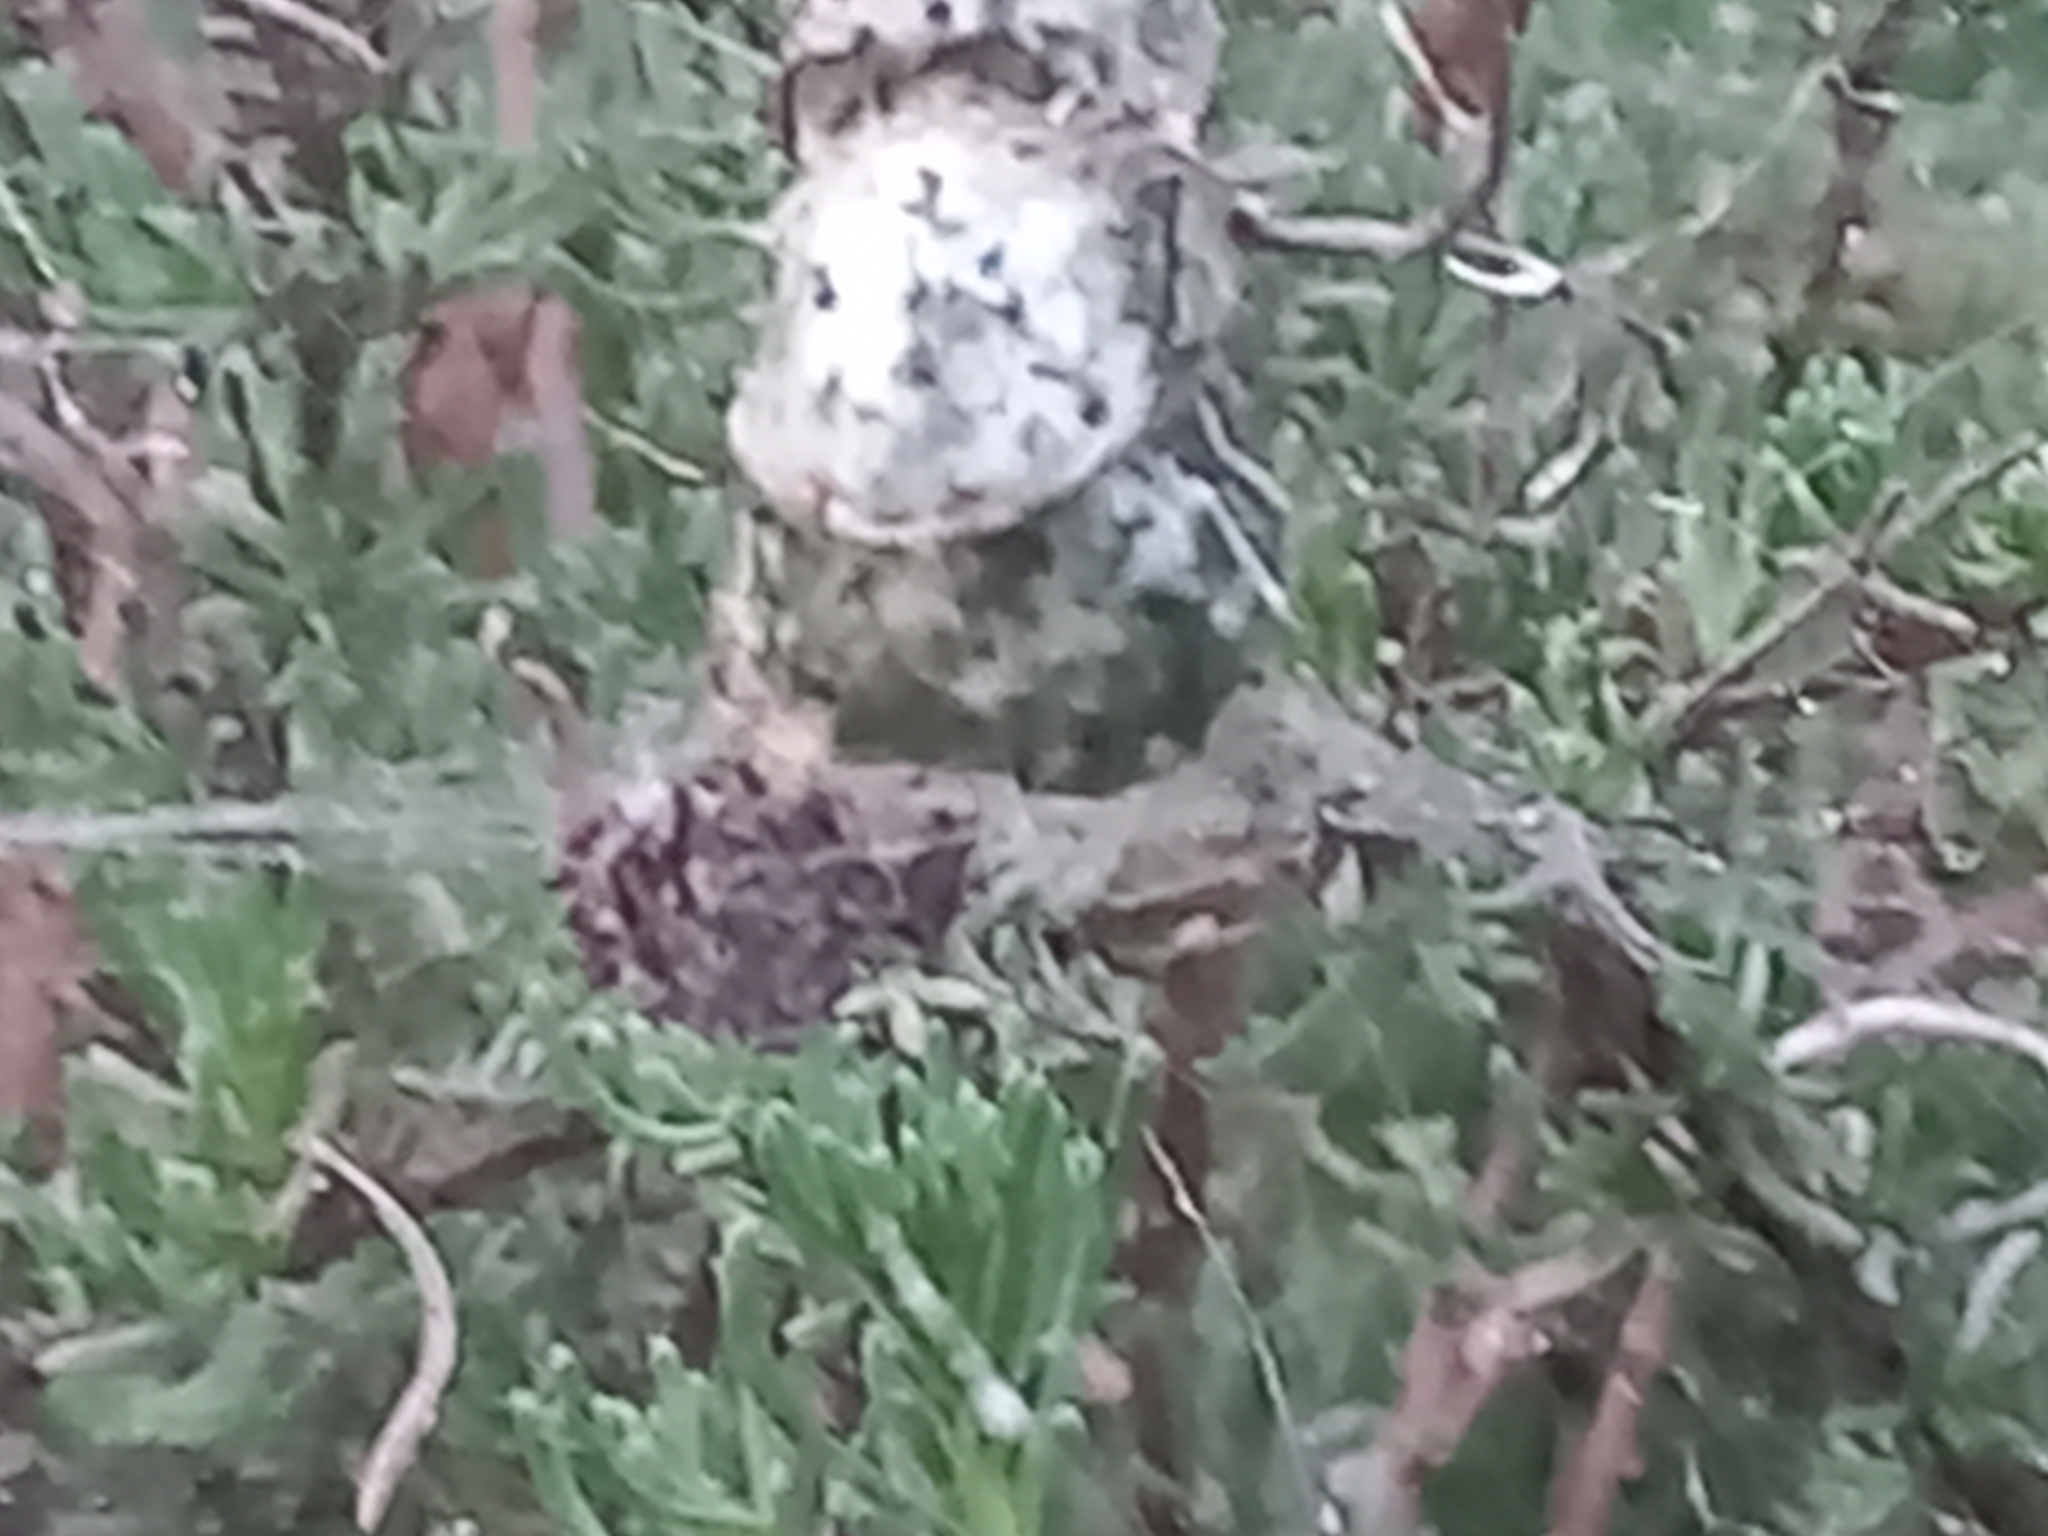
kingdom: Animalia
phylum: Arthropoda
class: Arachnida
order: Araneae
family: Araneidae
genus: Cyrtophora
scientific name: Cyrtophora citricola
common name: Orb weavers
